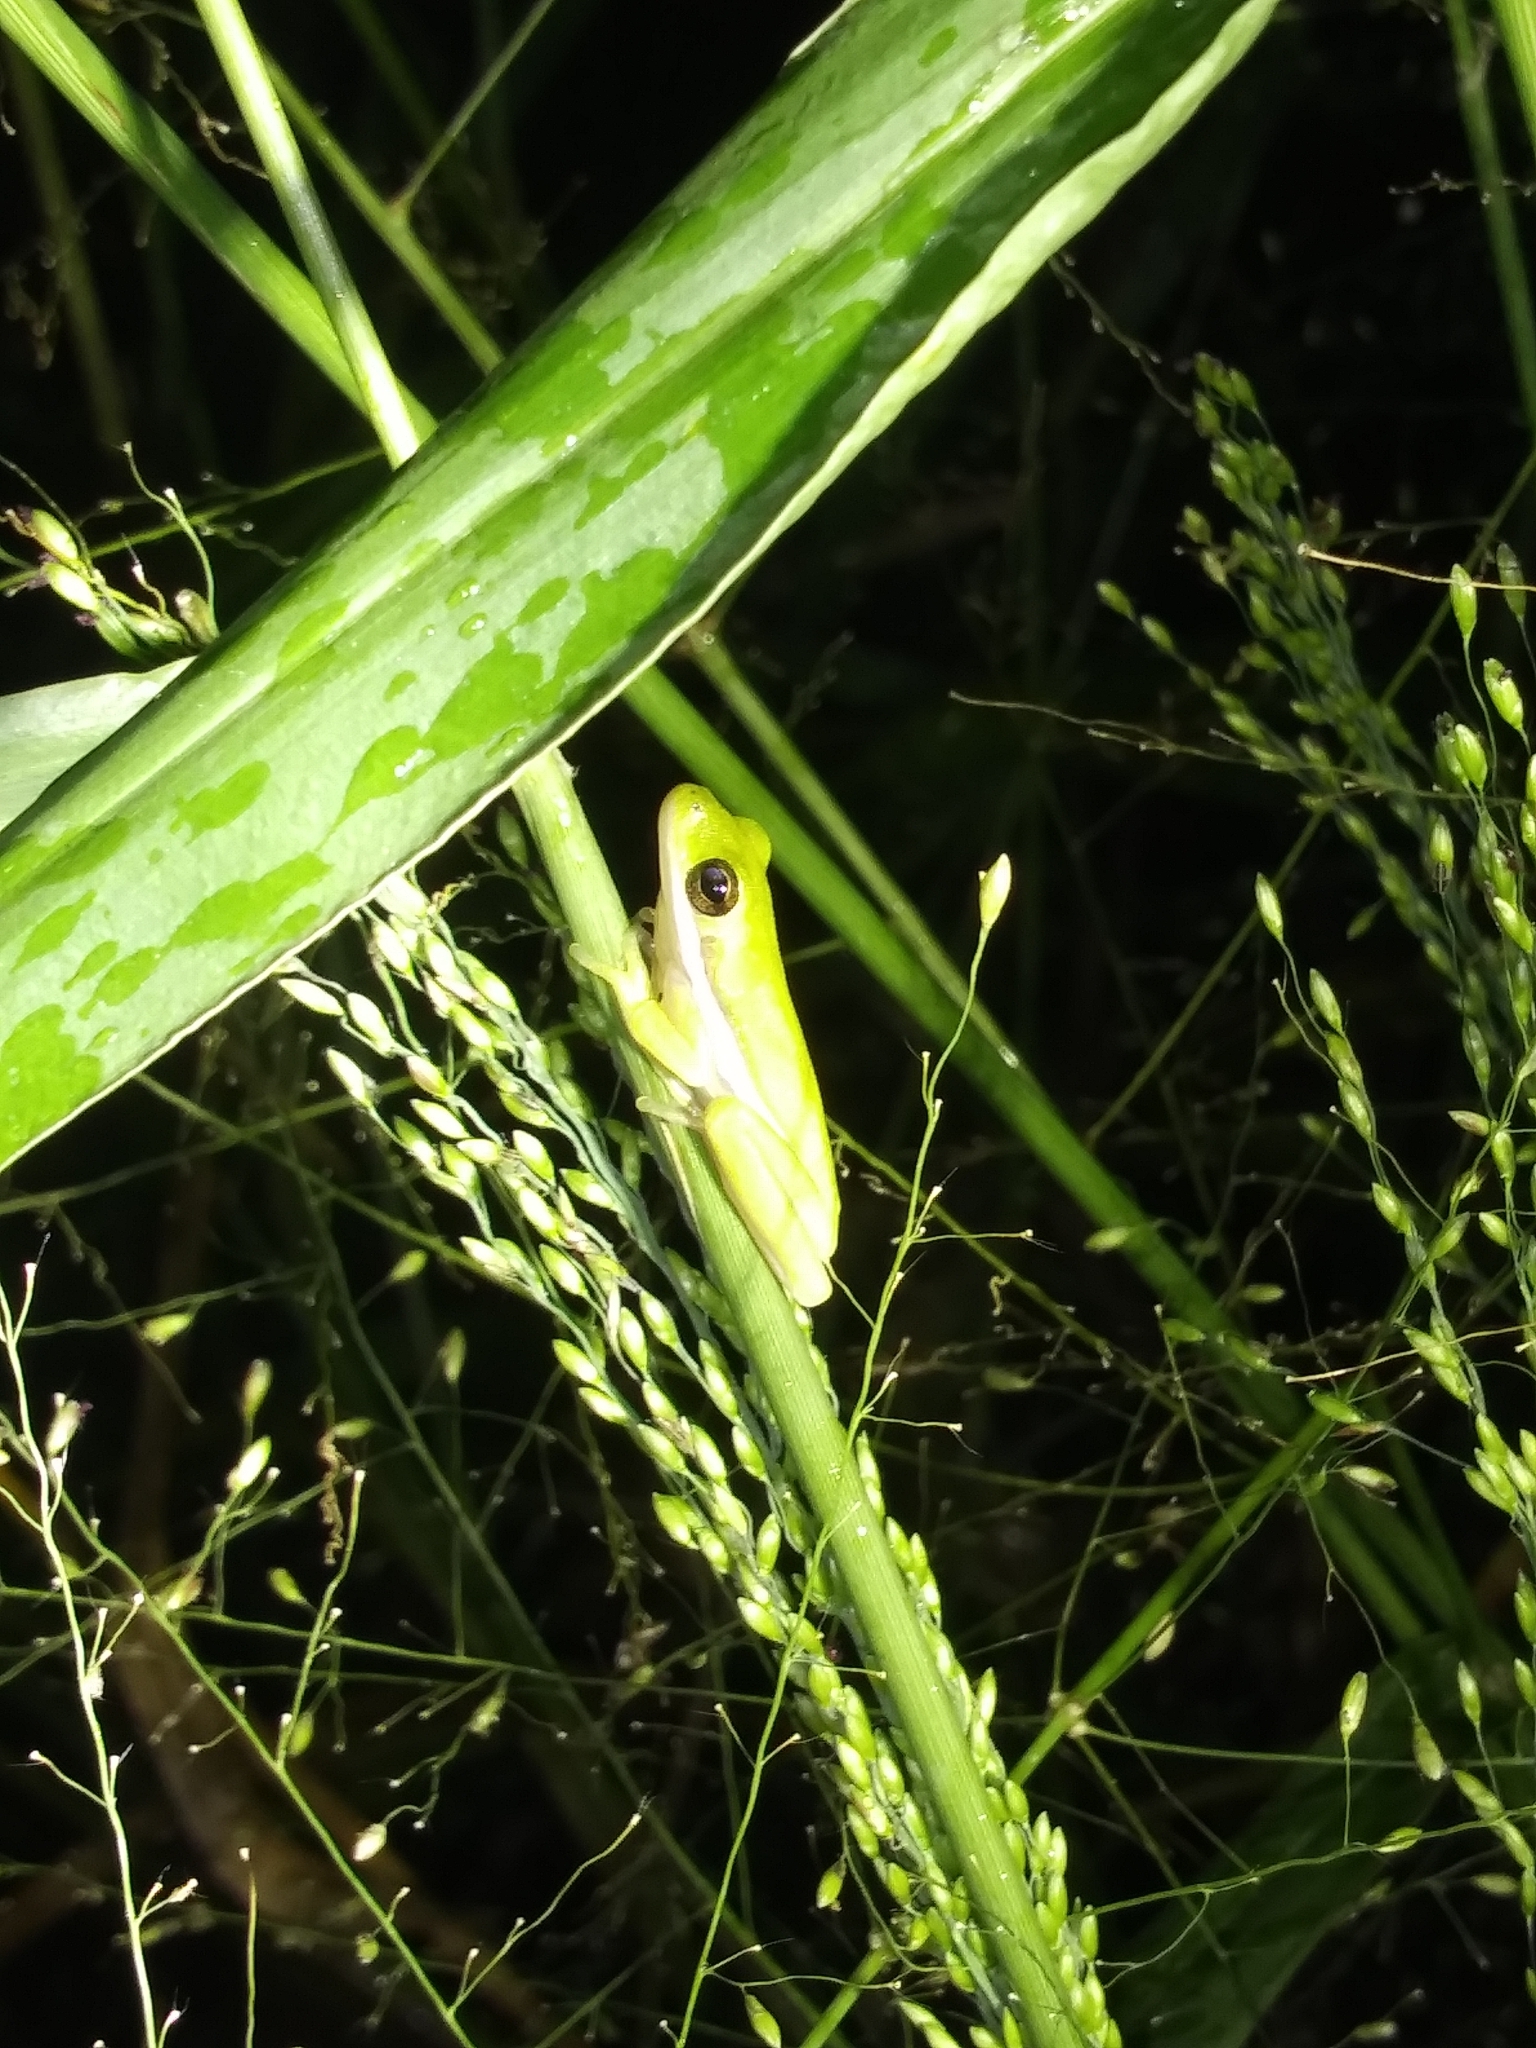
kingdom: Animalia
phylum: Chordata
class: Amphibia
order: Anura
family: Hylidae
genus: Dryophytes
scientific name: Dryophytes cinereus
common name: Green treefrog
